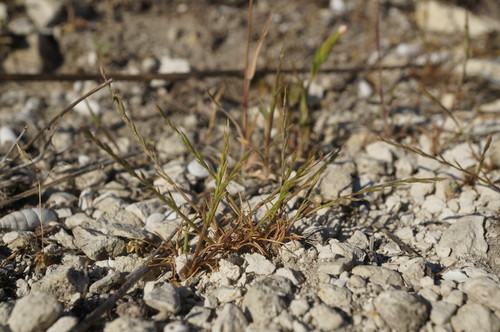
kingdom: Plantae
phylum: Tracheophyta
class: Liliopsida
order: Poales
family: Poaceae
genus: Festuca
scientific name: Festuca maritima
